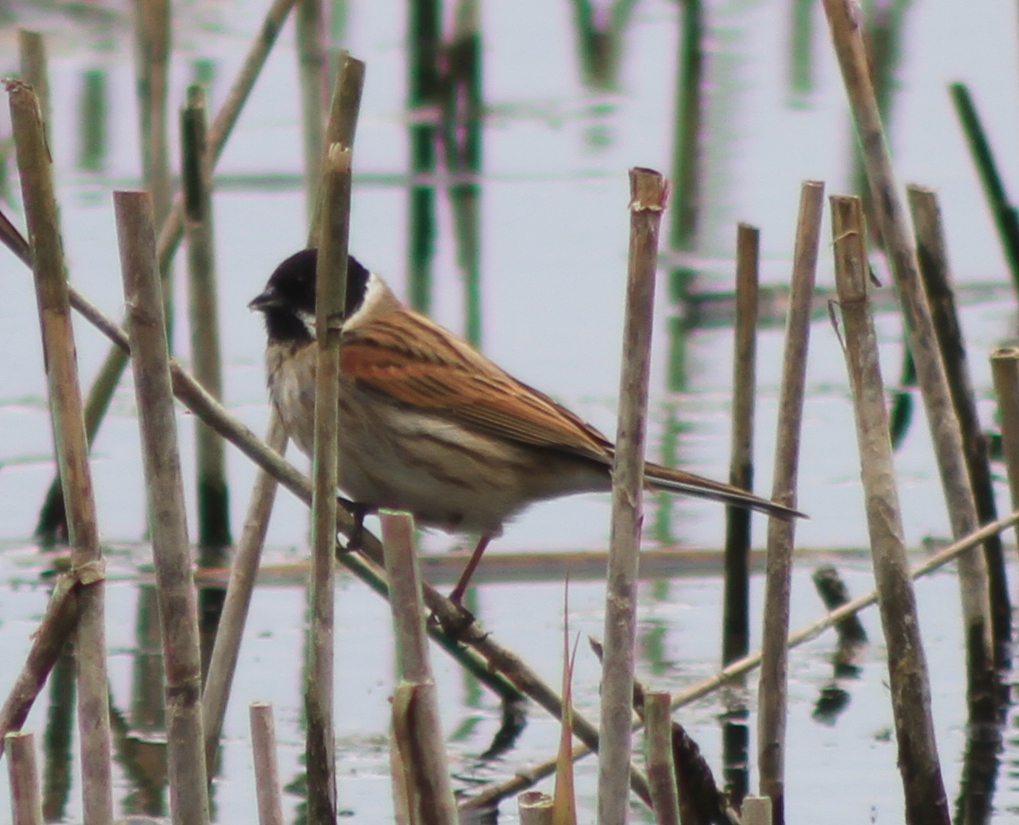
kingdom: Animalia
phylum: Chordata
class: Aves
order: Passeriformes
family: Emberizidae
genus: Emberiza
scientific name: Emberiza schoeniclus
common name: Reed bunting
